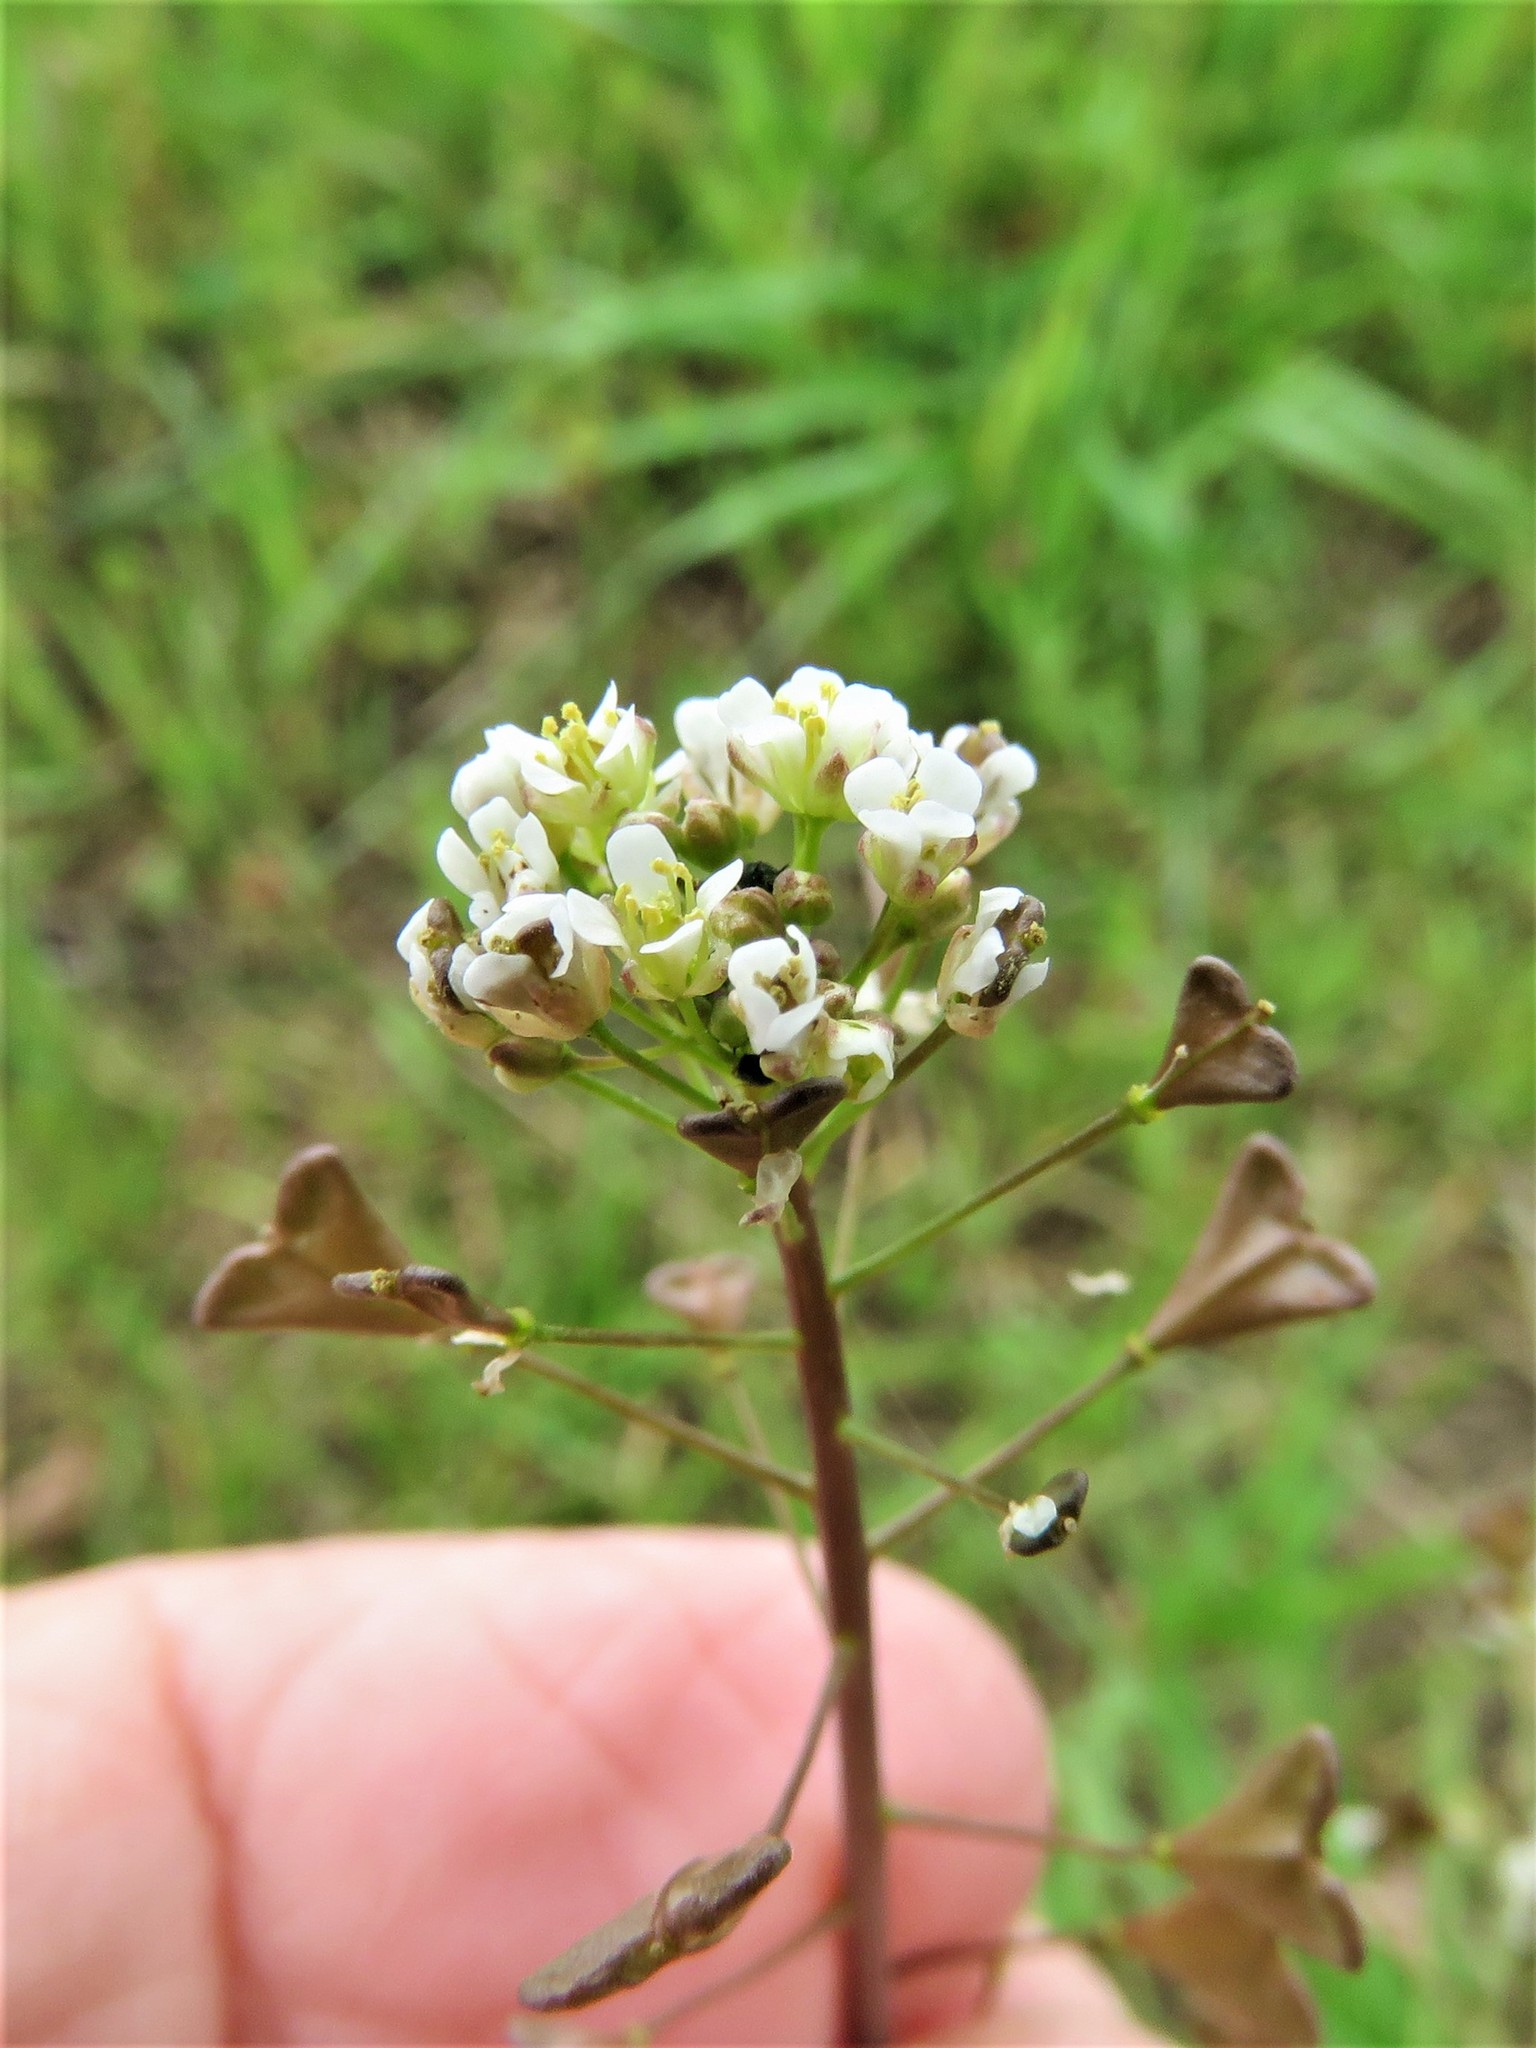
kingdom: Plantae
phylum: Tracheophyta
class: Magnoliopsida
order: Brassicales
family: Brassicaceae
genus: Capsella
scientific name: Capsella bursa-pastoris
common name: Shepherd's purse
